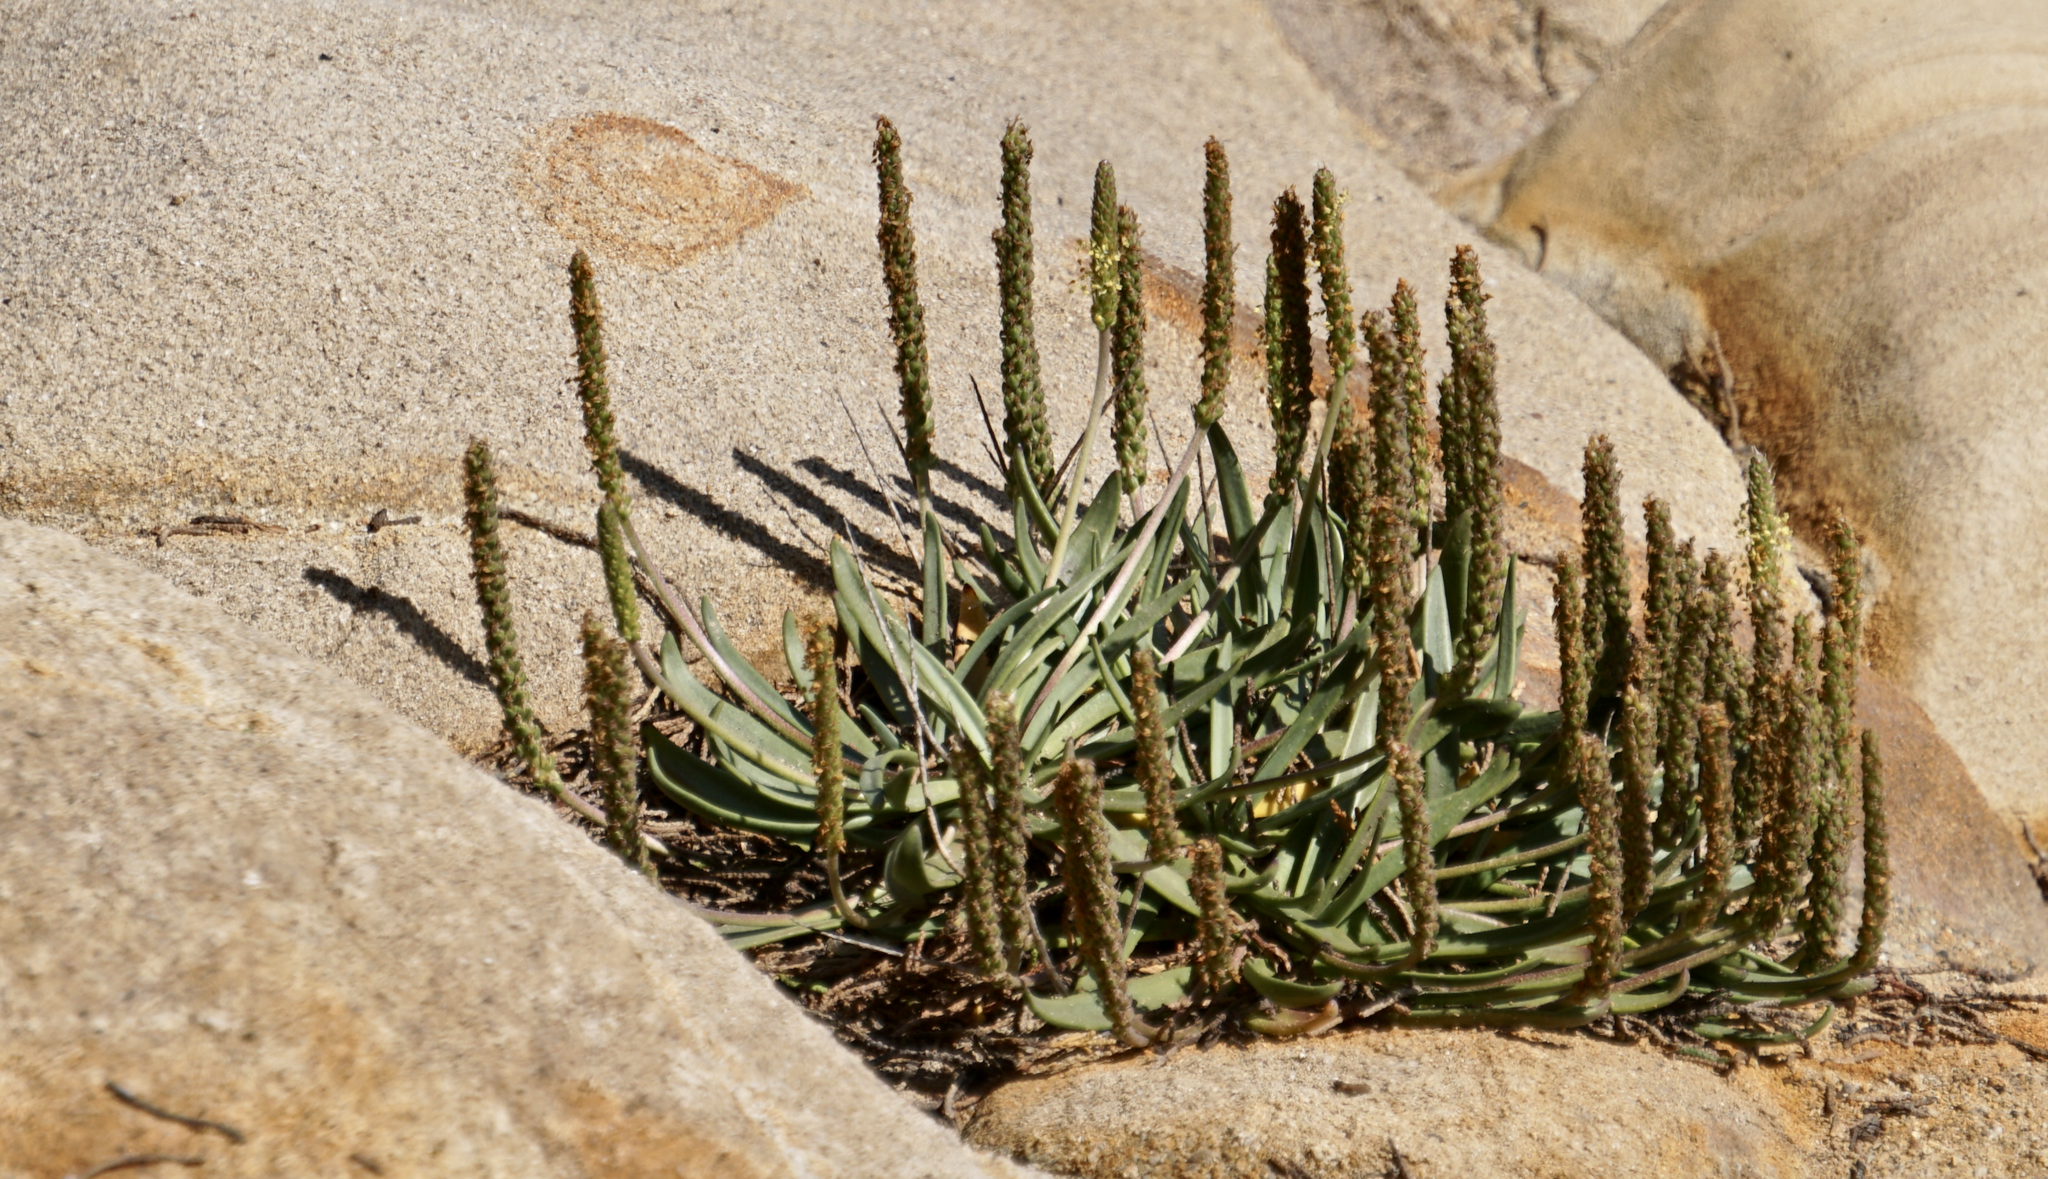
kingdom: Plantae
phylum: Tracheophyta
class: Magnoliopsida
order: Lamiales
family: Plantaginaceae
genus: Plantago
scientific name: Plantago maritima
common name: Sea plantain
